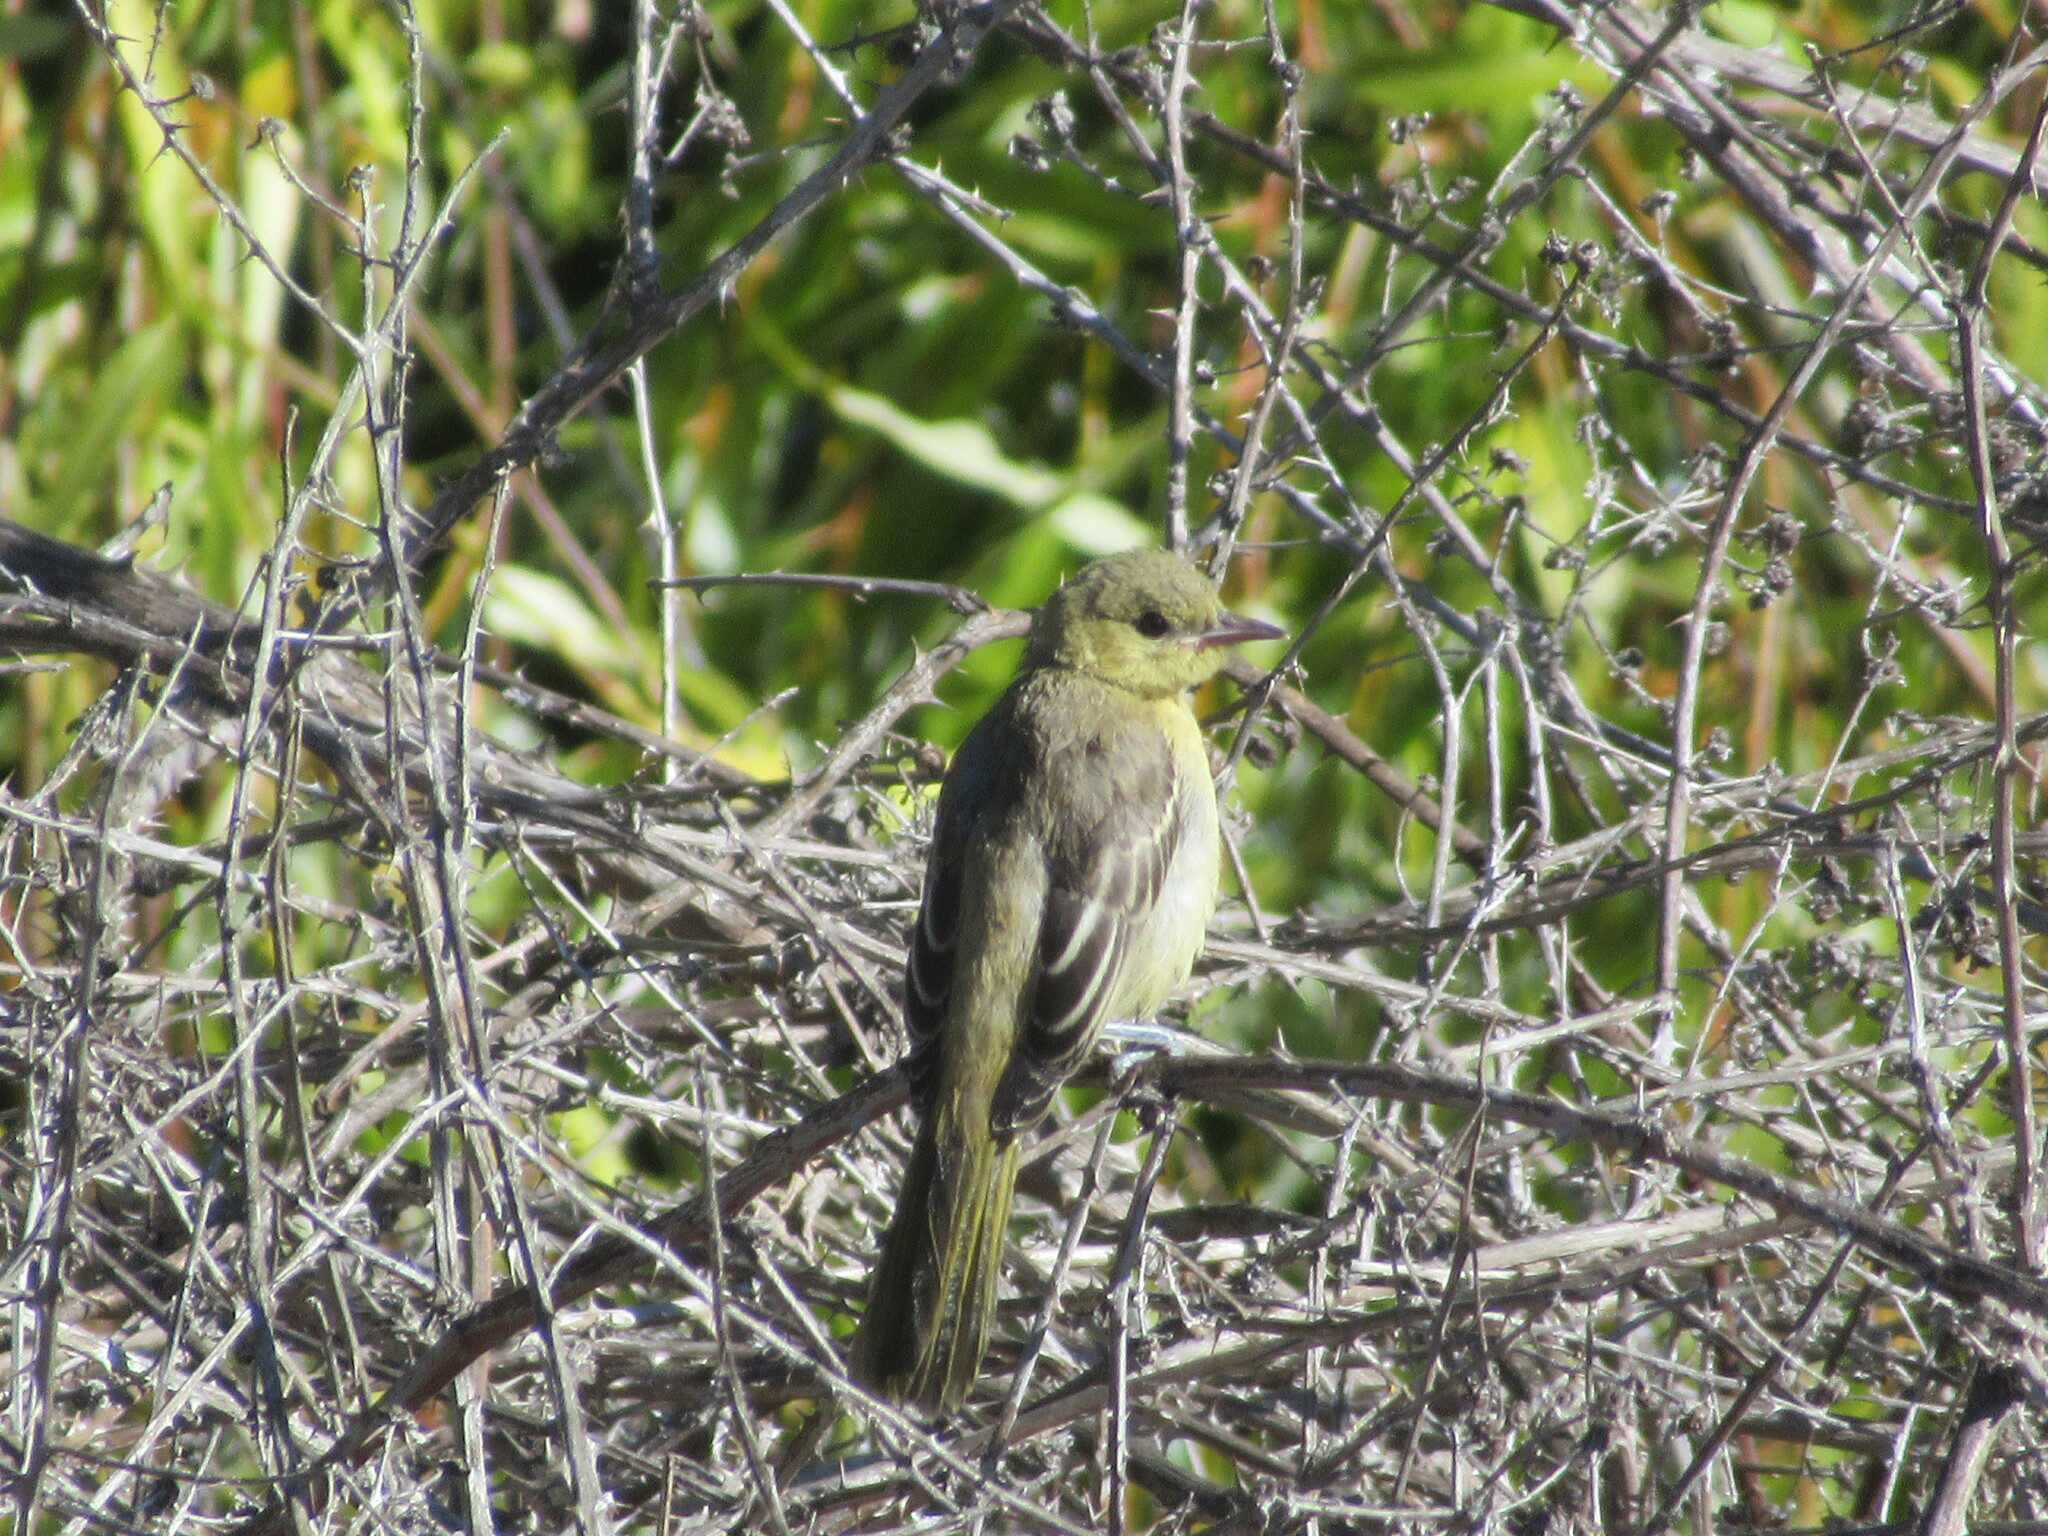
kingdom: Animalia
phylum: Chordata
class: Aves
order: Passeriformes
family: Icteridae
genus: Icterus
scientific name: Icterus cucullatus
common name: Hooded oriole
